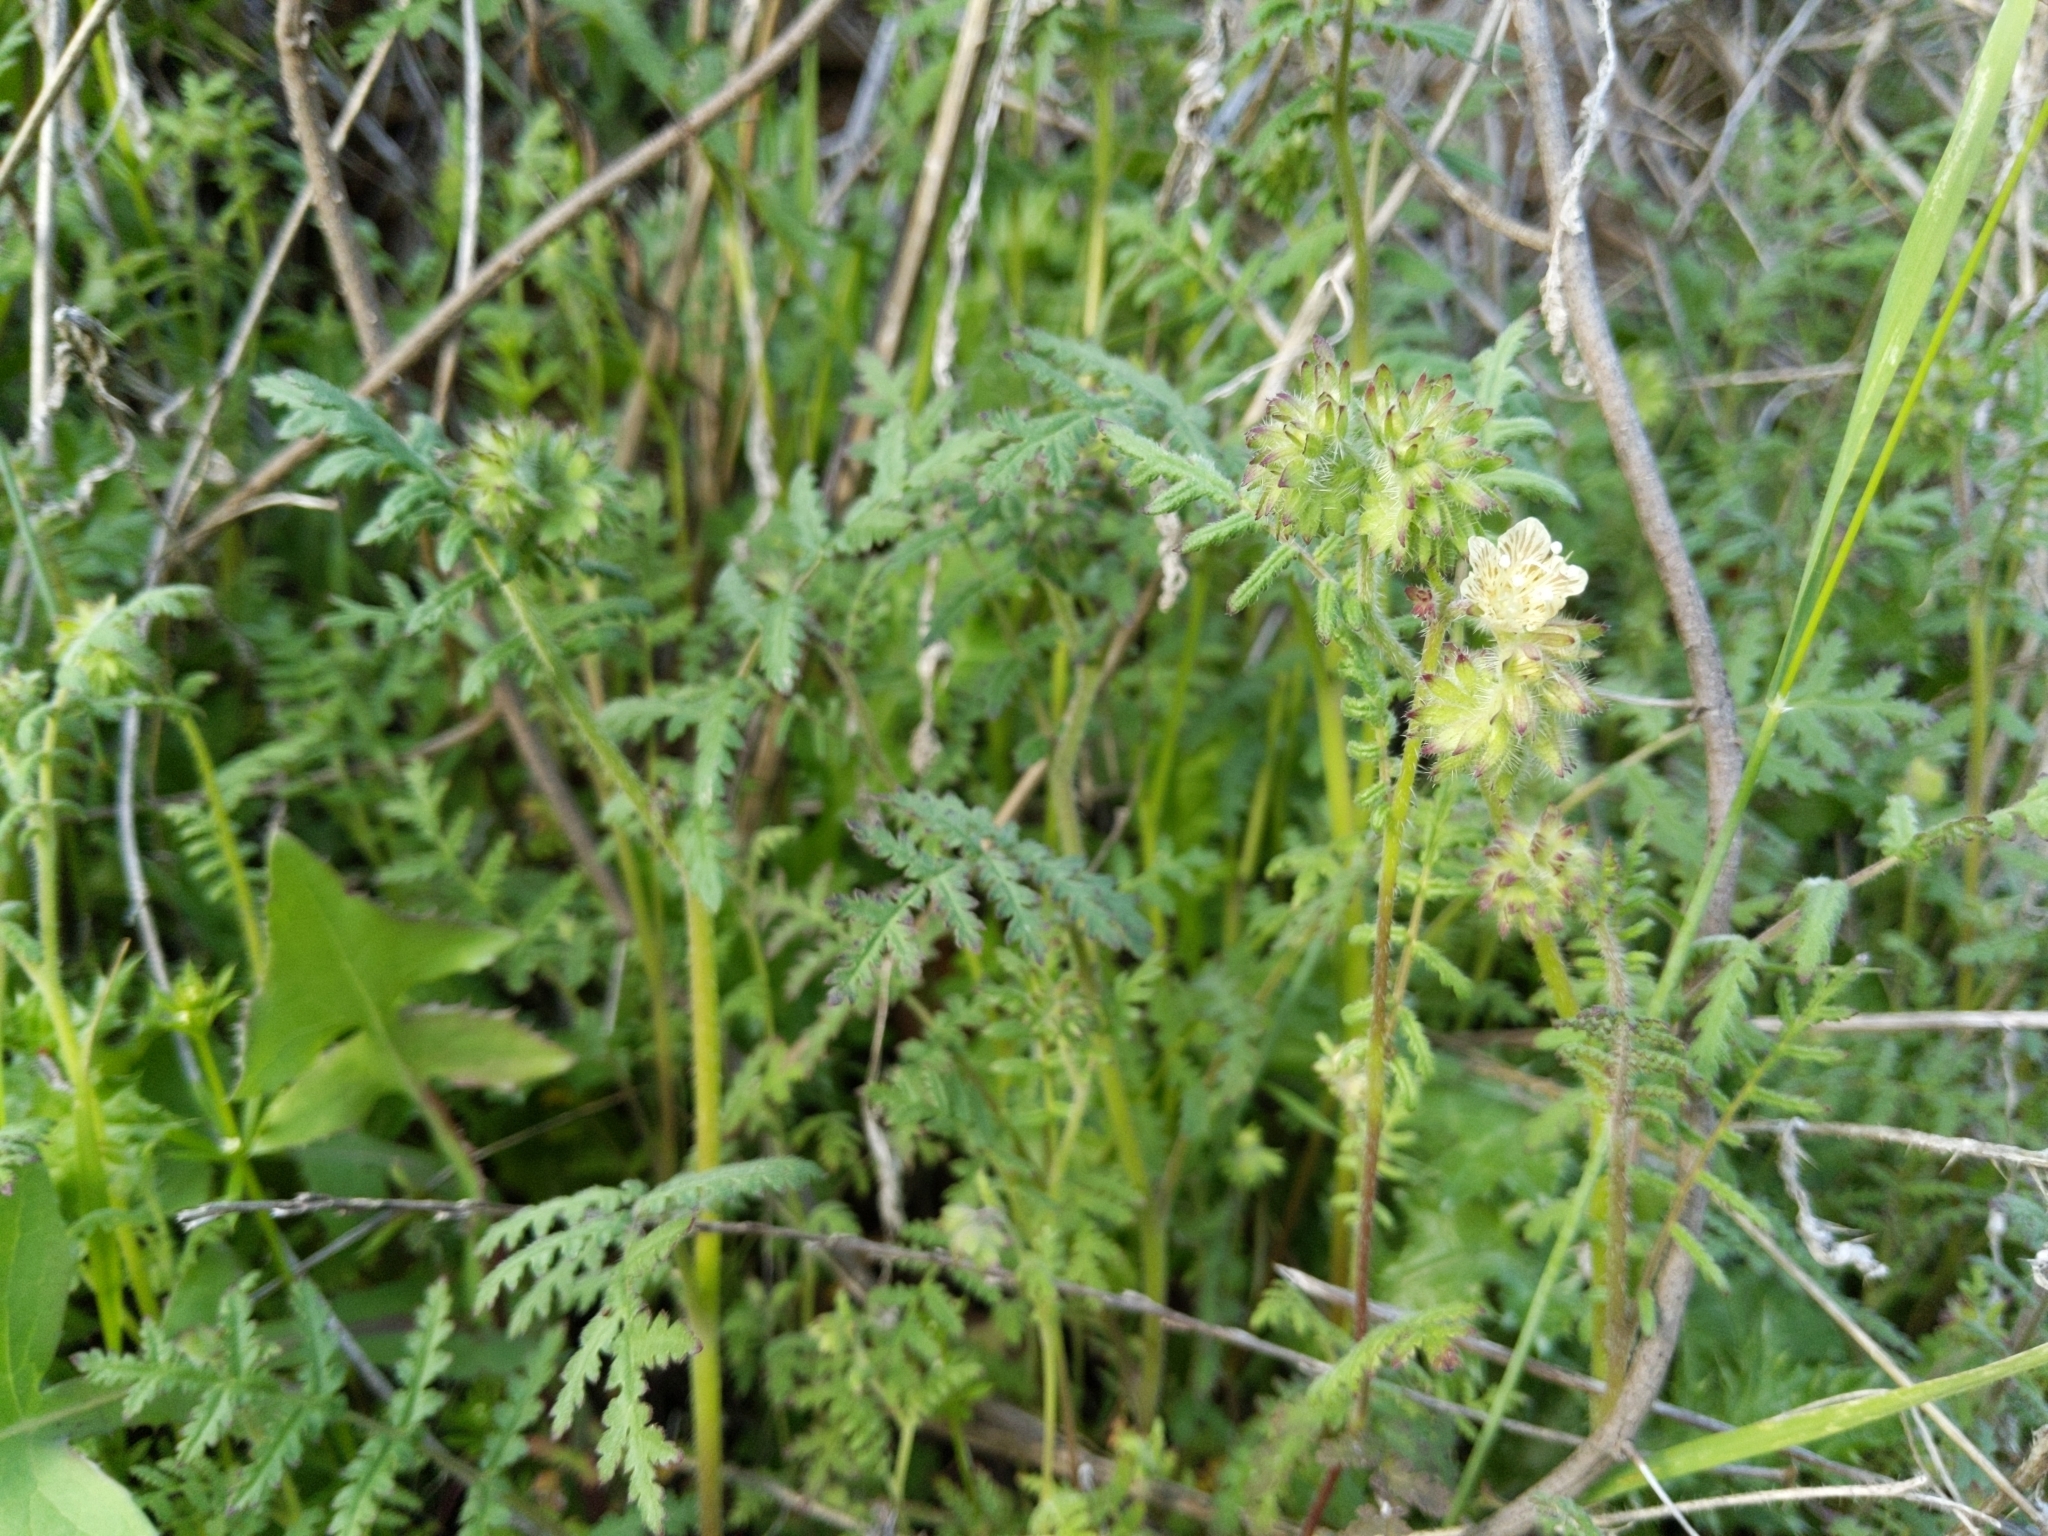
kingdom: Plantae
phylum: Tracheophyta
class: Magnoliopsida
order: Boraginales
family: Hydrophyllaceae
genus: Phacelia
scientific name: Phacelia distans
